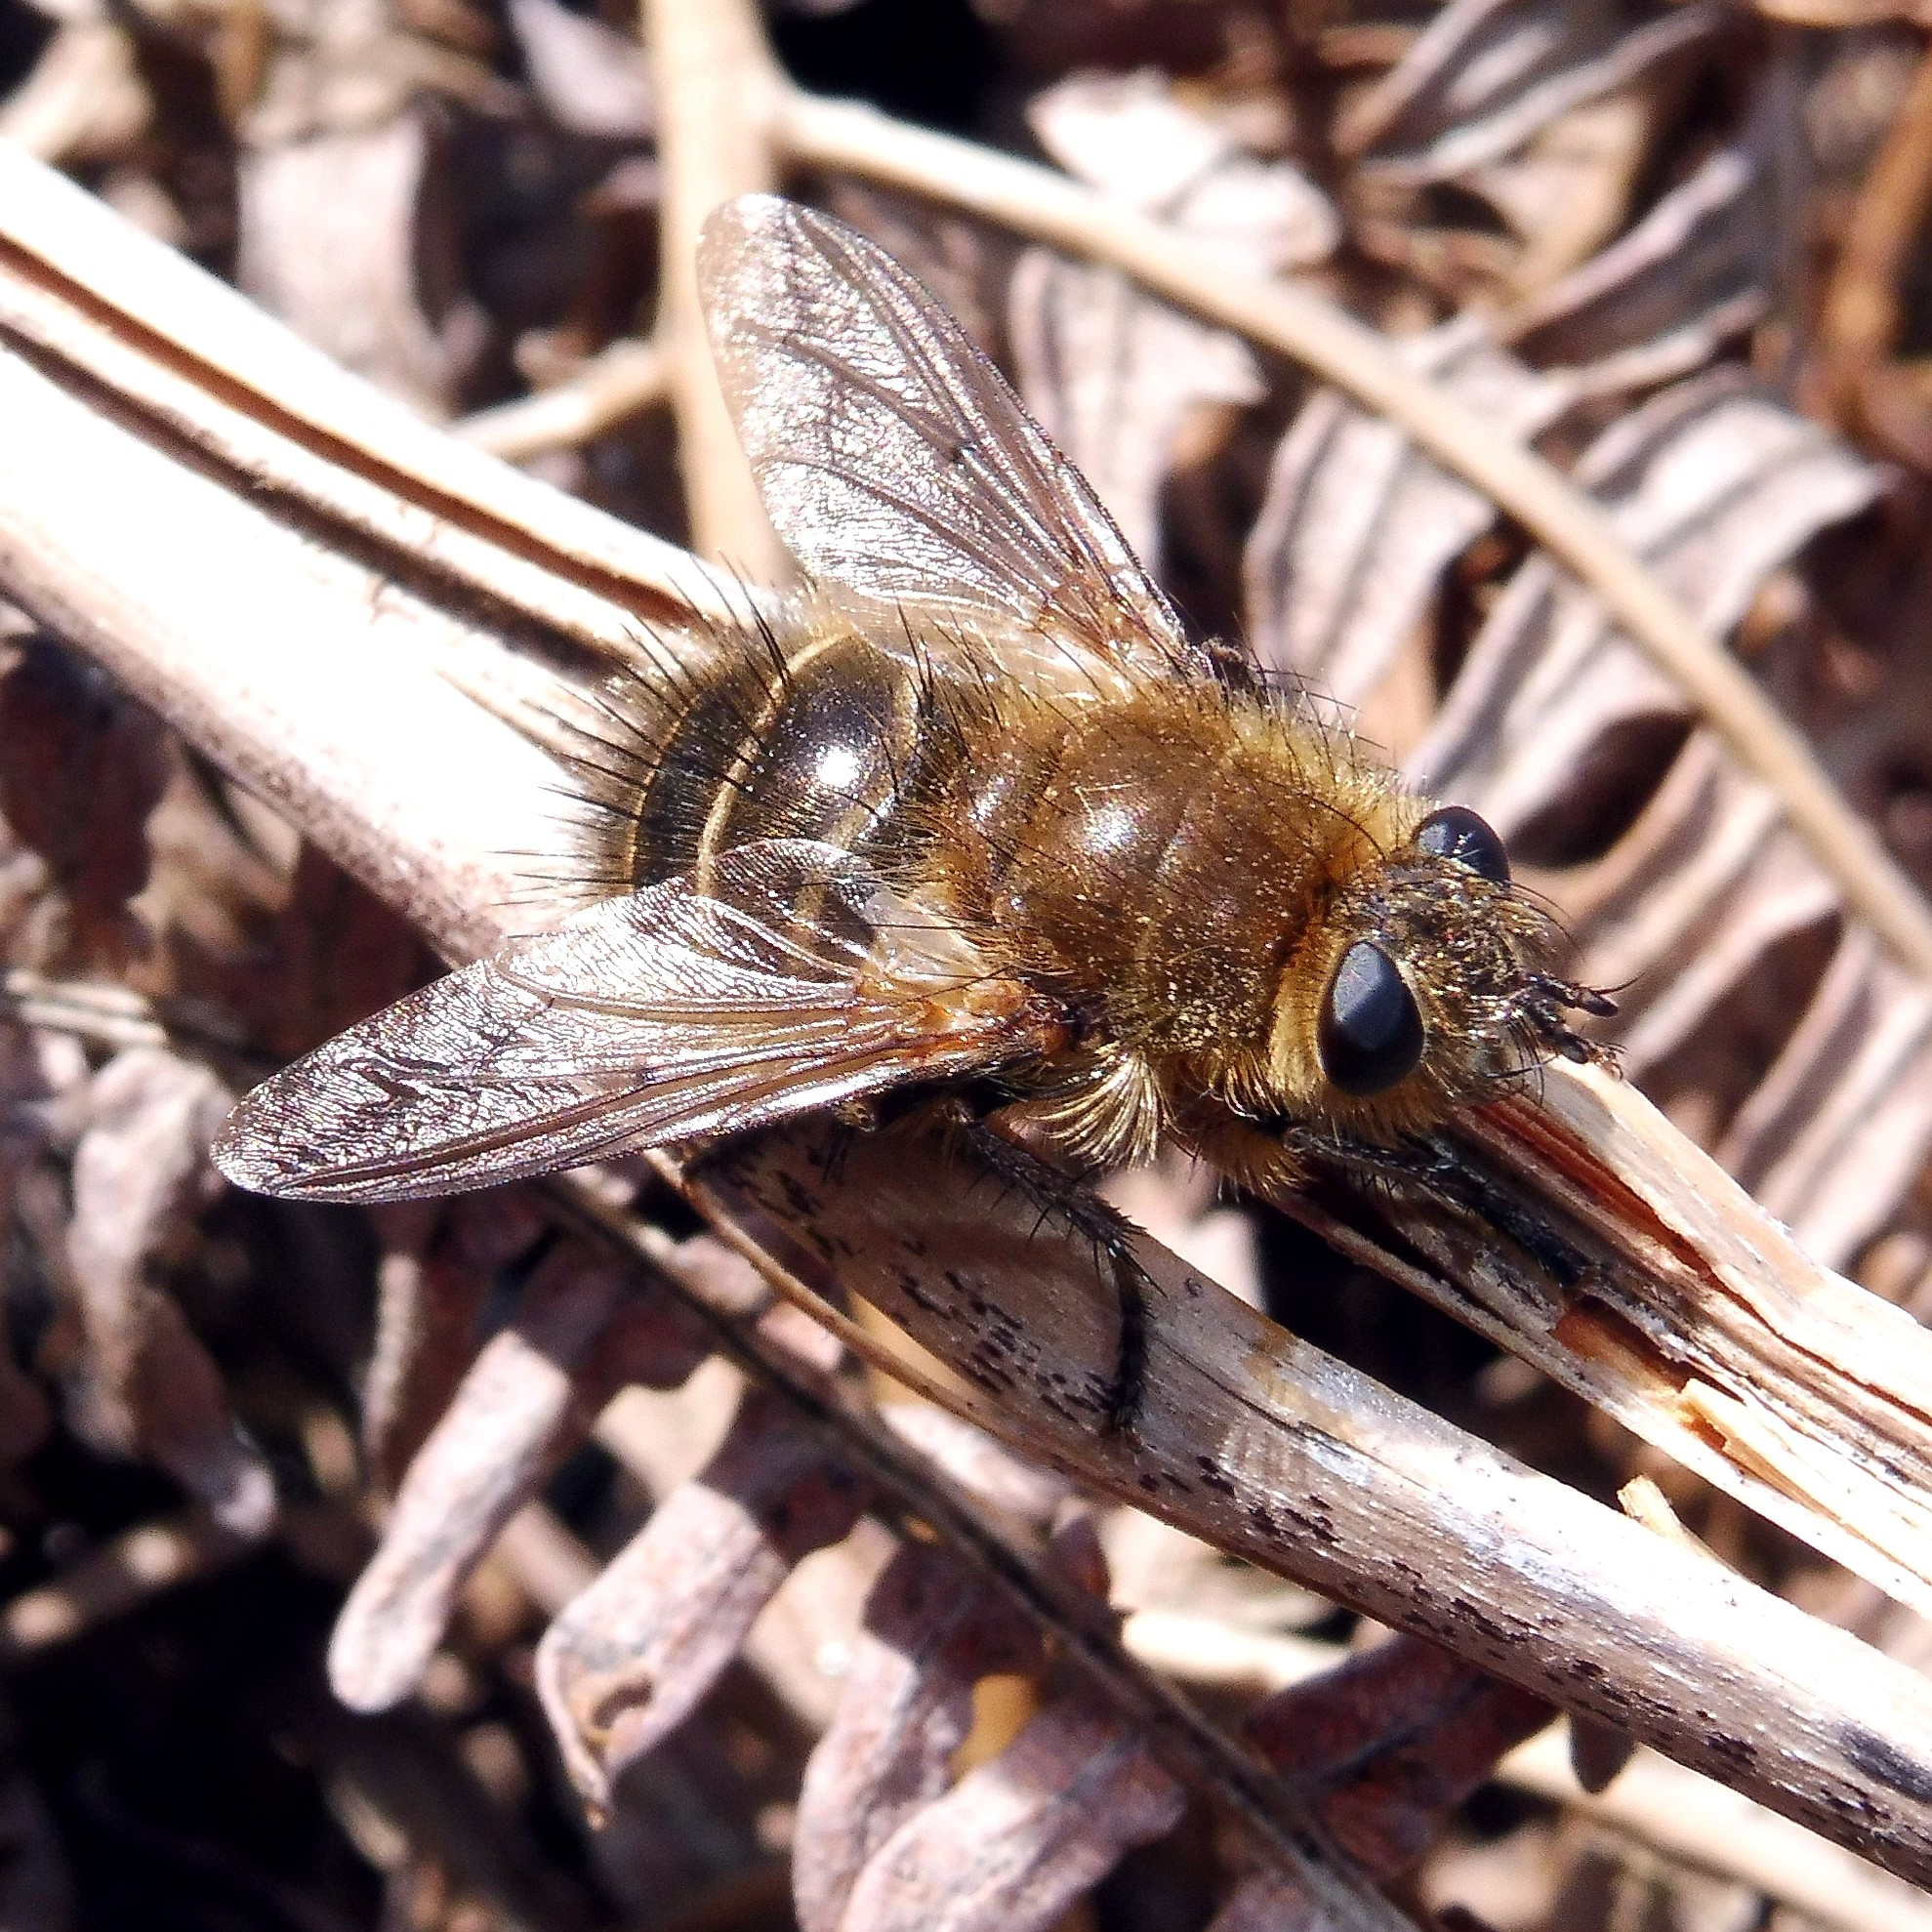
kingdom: Animalia
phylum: Arthropoda
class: Insecta
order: Diptera
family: Tachinidae
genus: Tachina
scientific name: Tachina ursina
